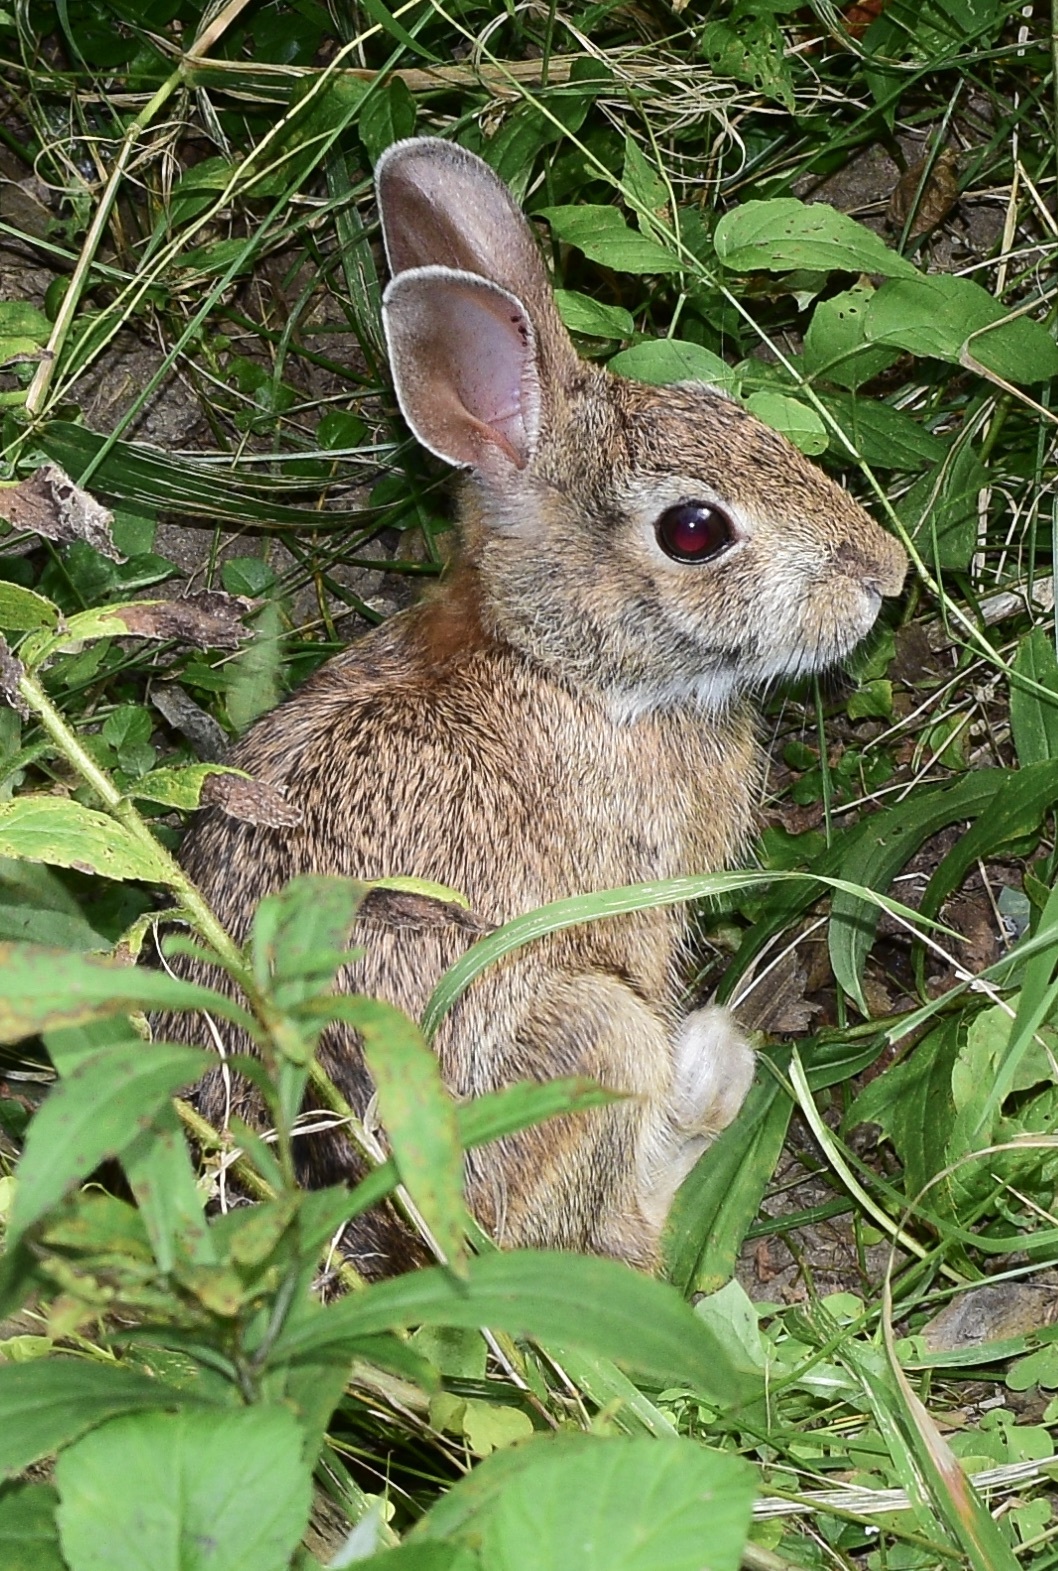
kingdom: Animalia
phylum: Chordata
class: Mammalia
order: Lagomorpha
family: Leporidae
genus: Sylvilagus
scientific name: Sylvilagus floridanus
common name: Eastern cottontail
